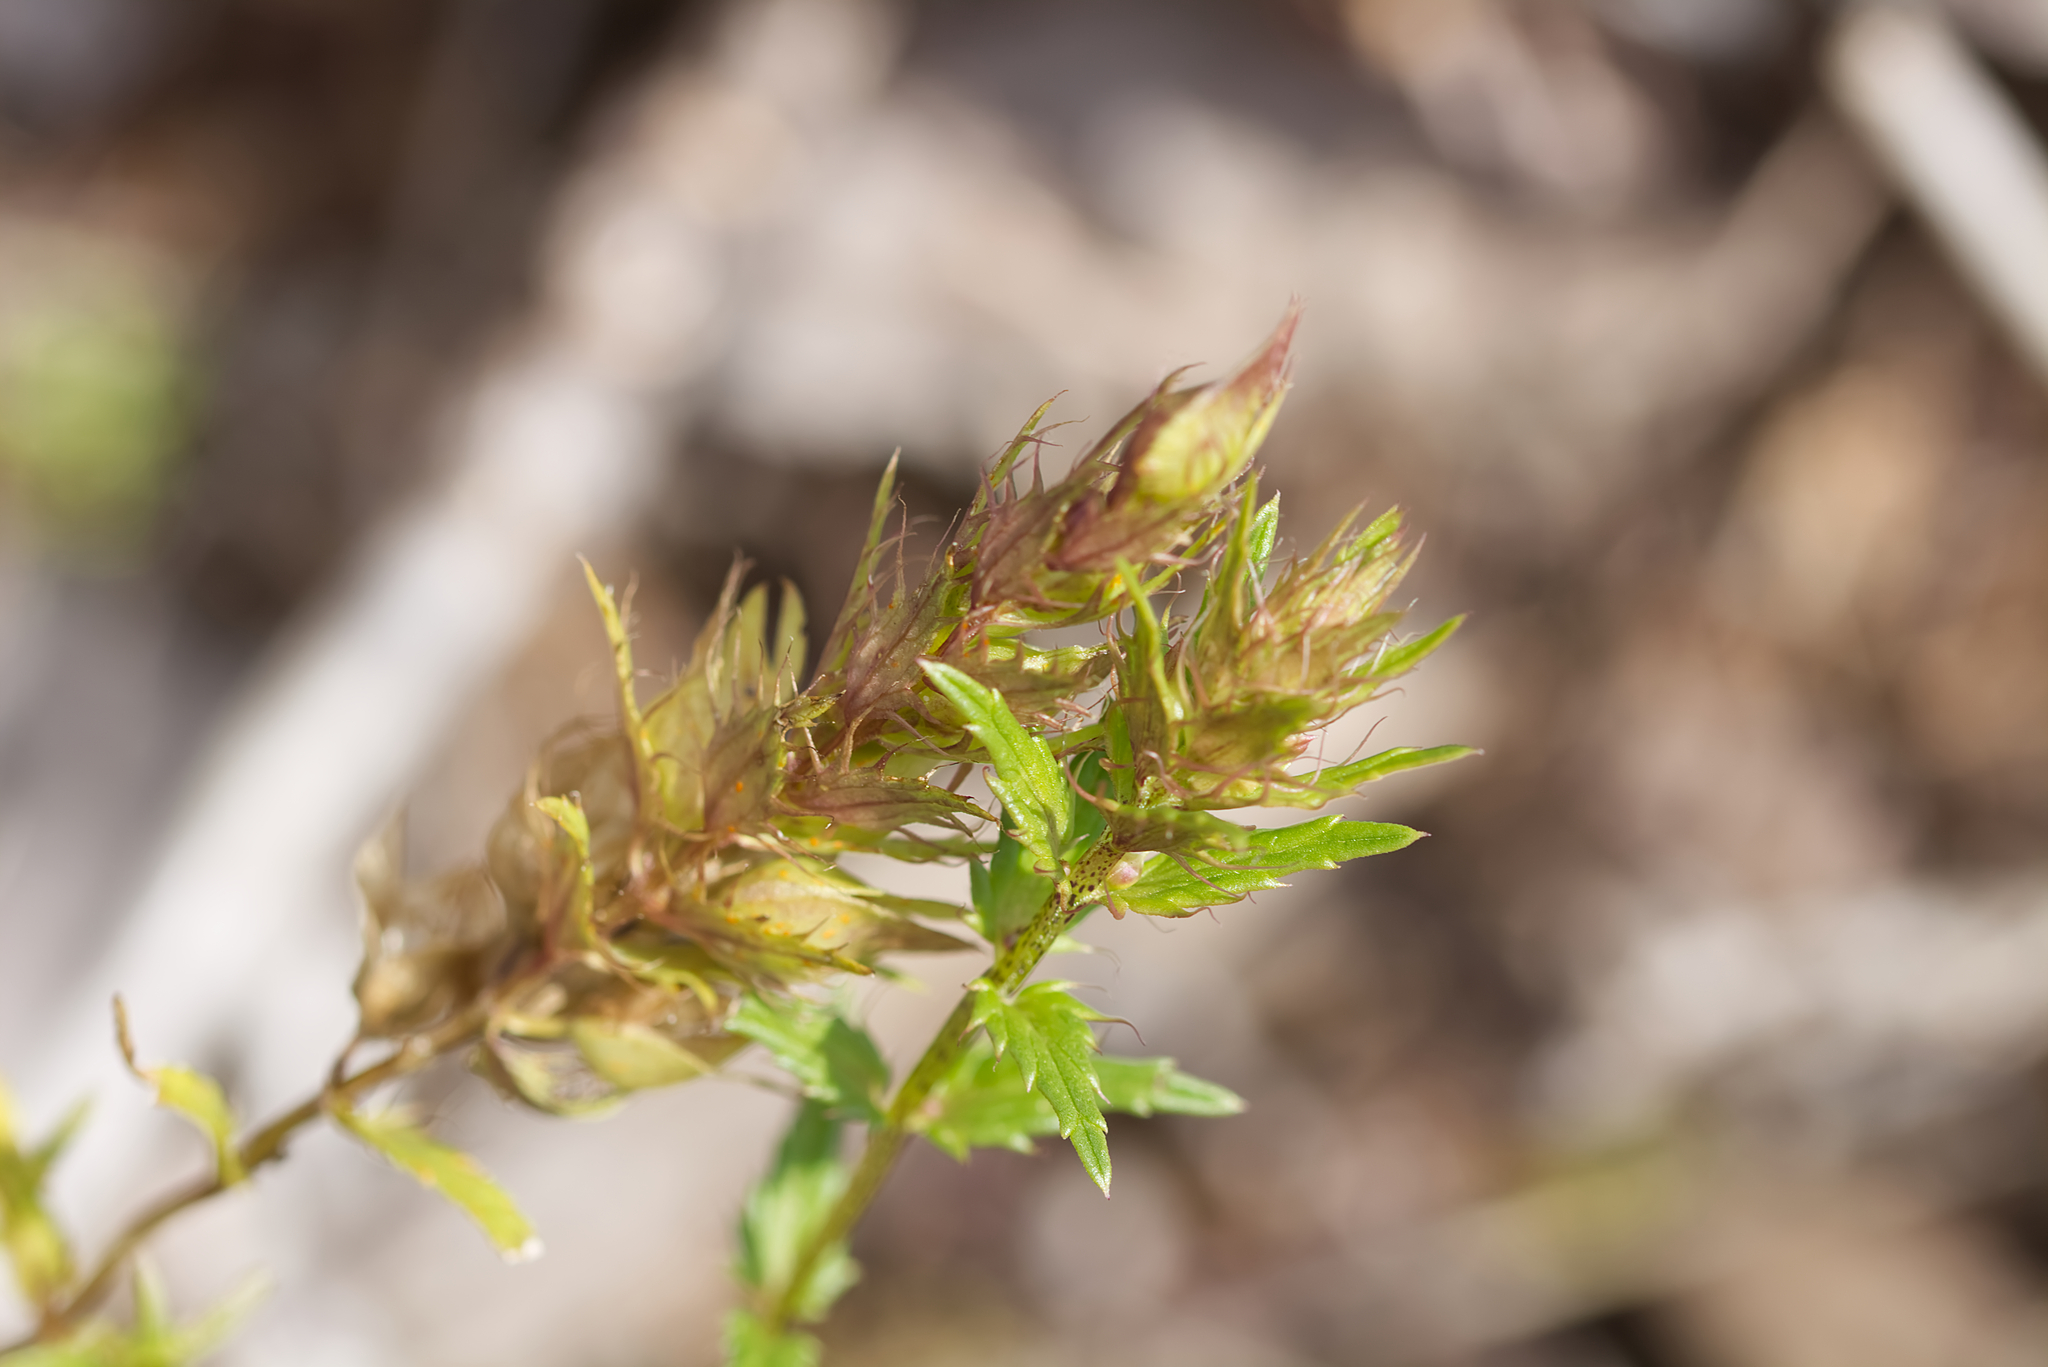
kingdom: Plantae
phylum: Tracheophyta
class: Magnoliopsida
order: Lamiales
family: Orobanchaceae
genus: Rhinanthus
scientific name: Rhinanthus glacialis
